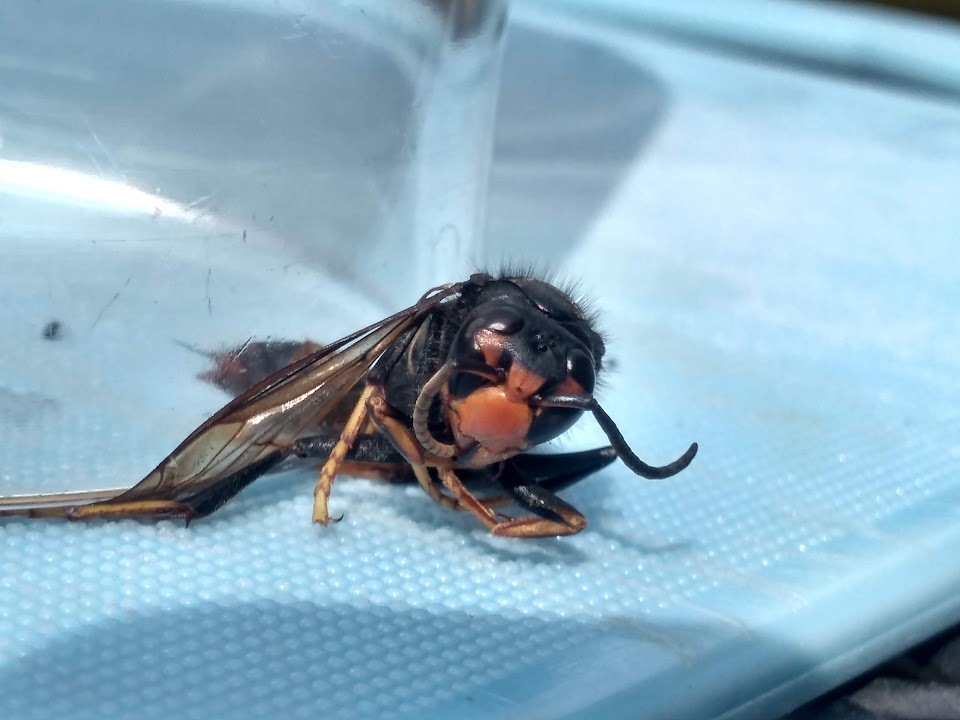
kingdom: Animalia
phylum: Arthropoda
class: Insecta
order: Hymenoptera
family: Vespidae
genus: Vespa
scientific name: Vespa velutina
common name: Asian hornet
